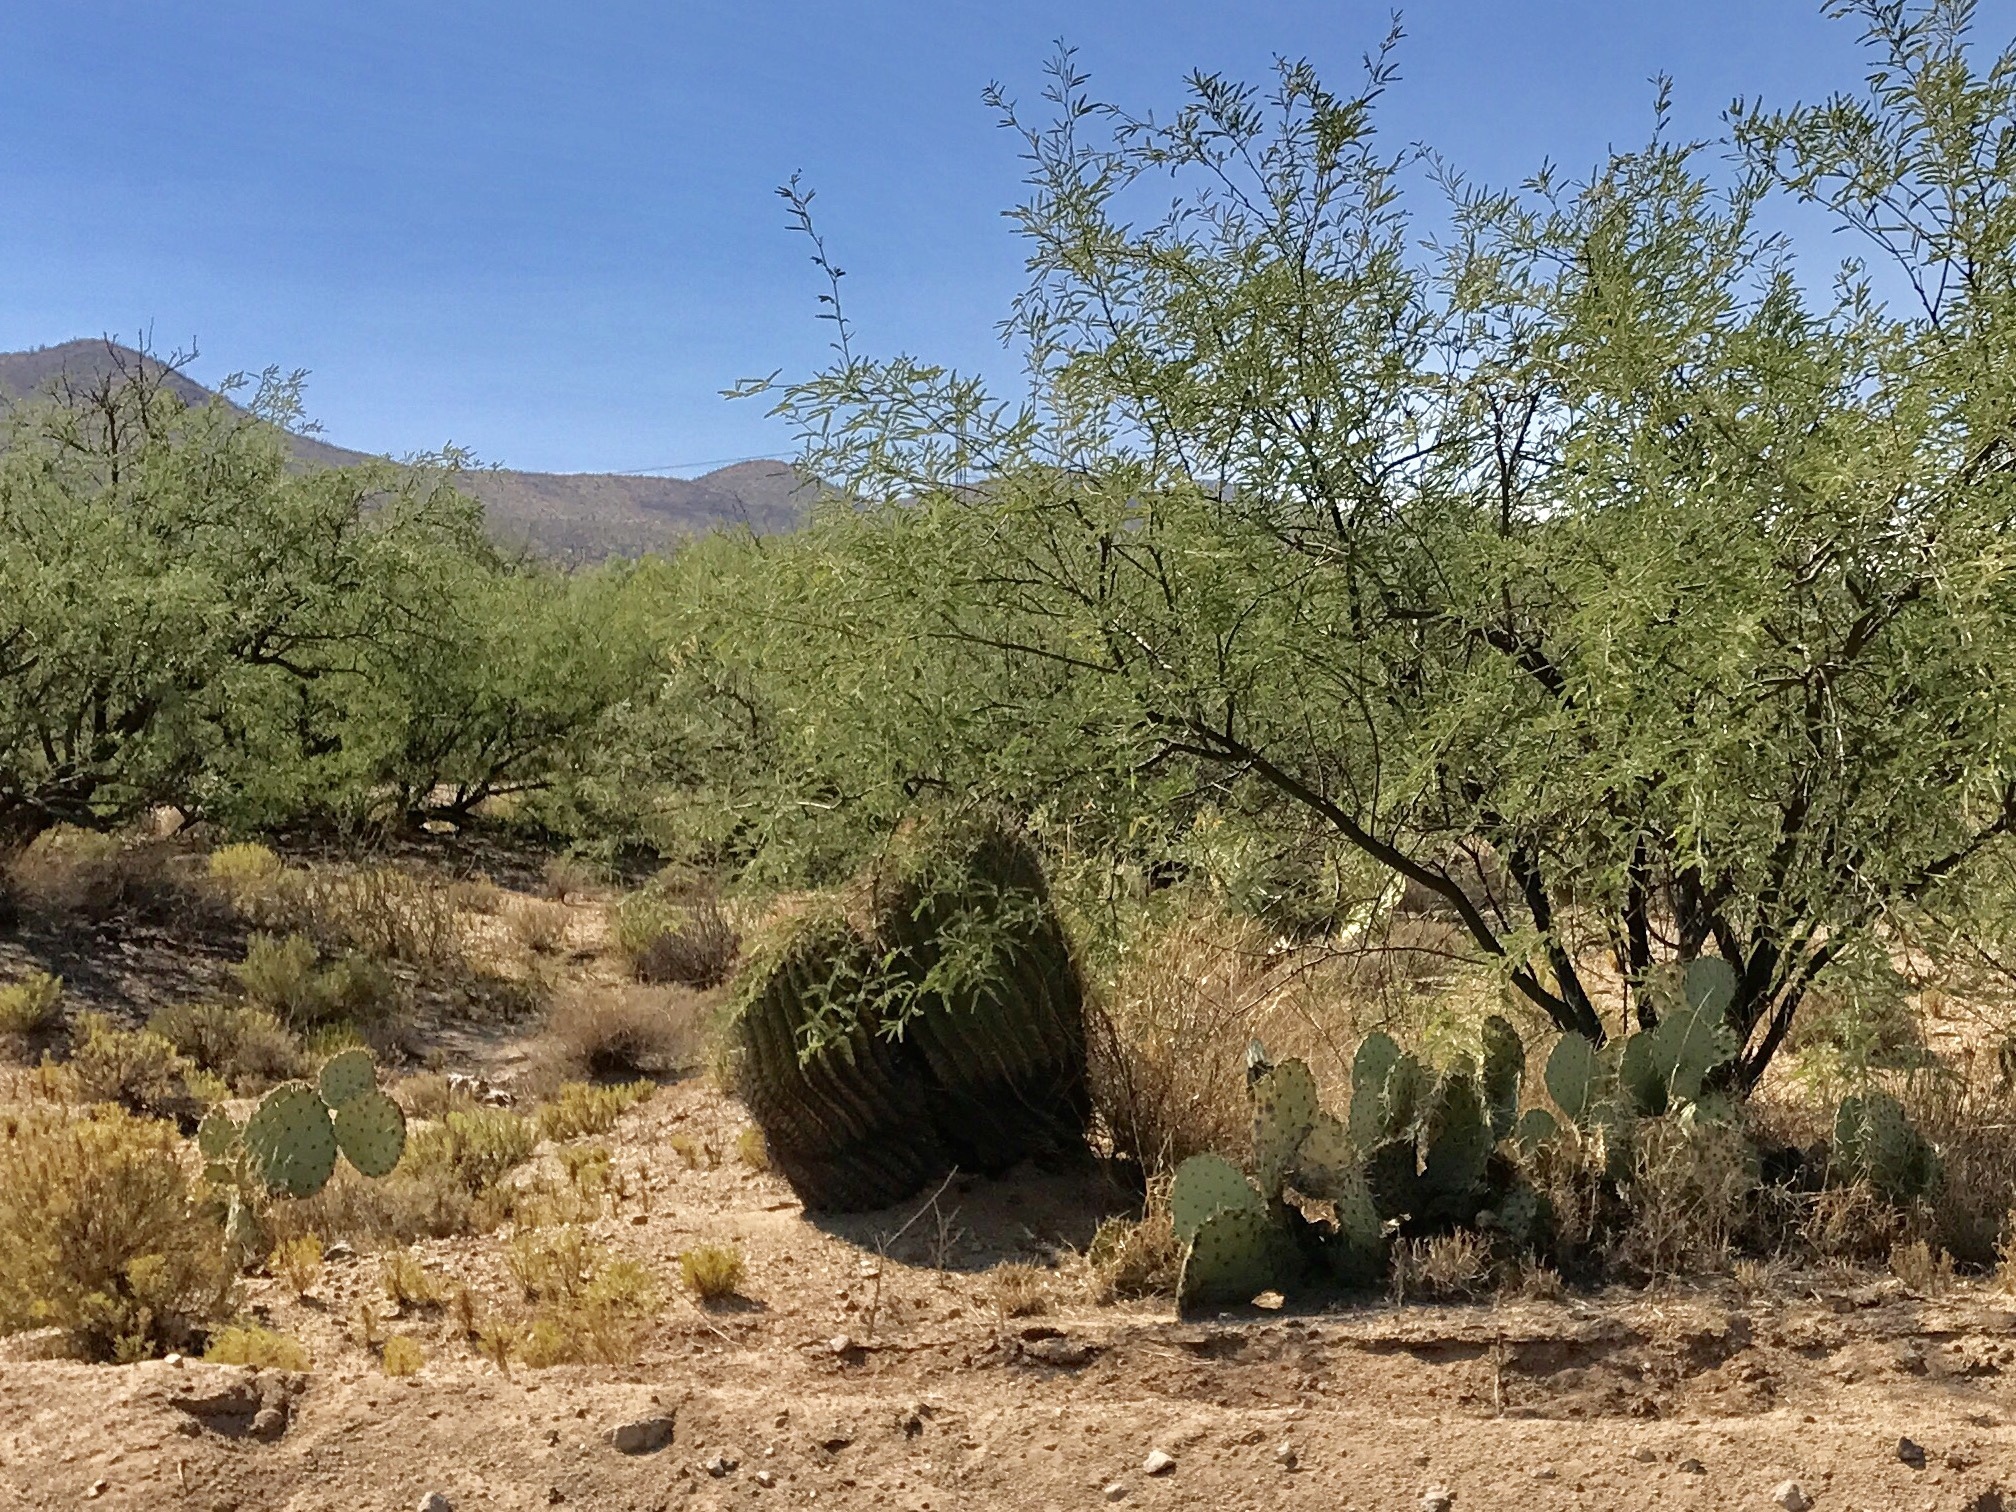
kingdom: Plantae
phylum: Tracheophyta
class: Magnoliopsida
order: Caryophyllales
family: Cactaceae
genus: Ferocactus
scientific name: Ferocactus wislizeni
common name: Candy barrel cactus
